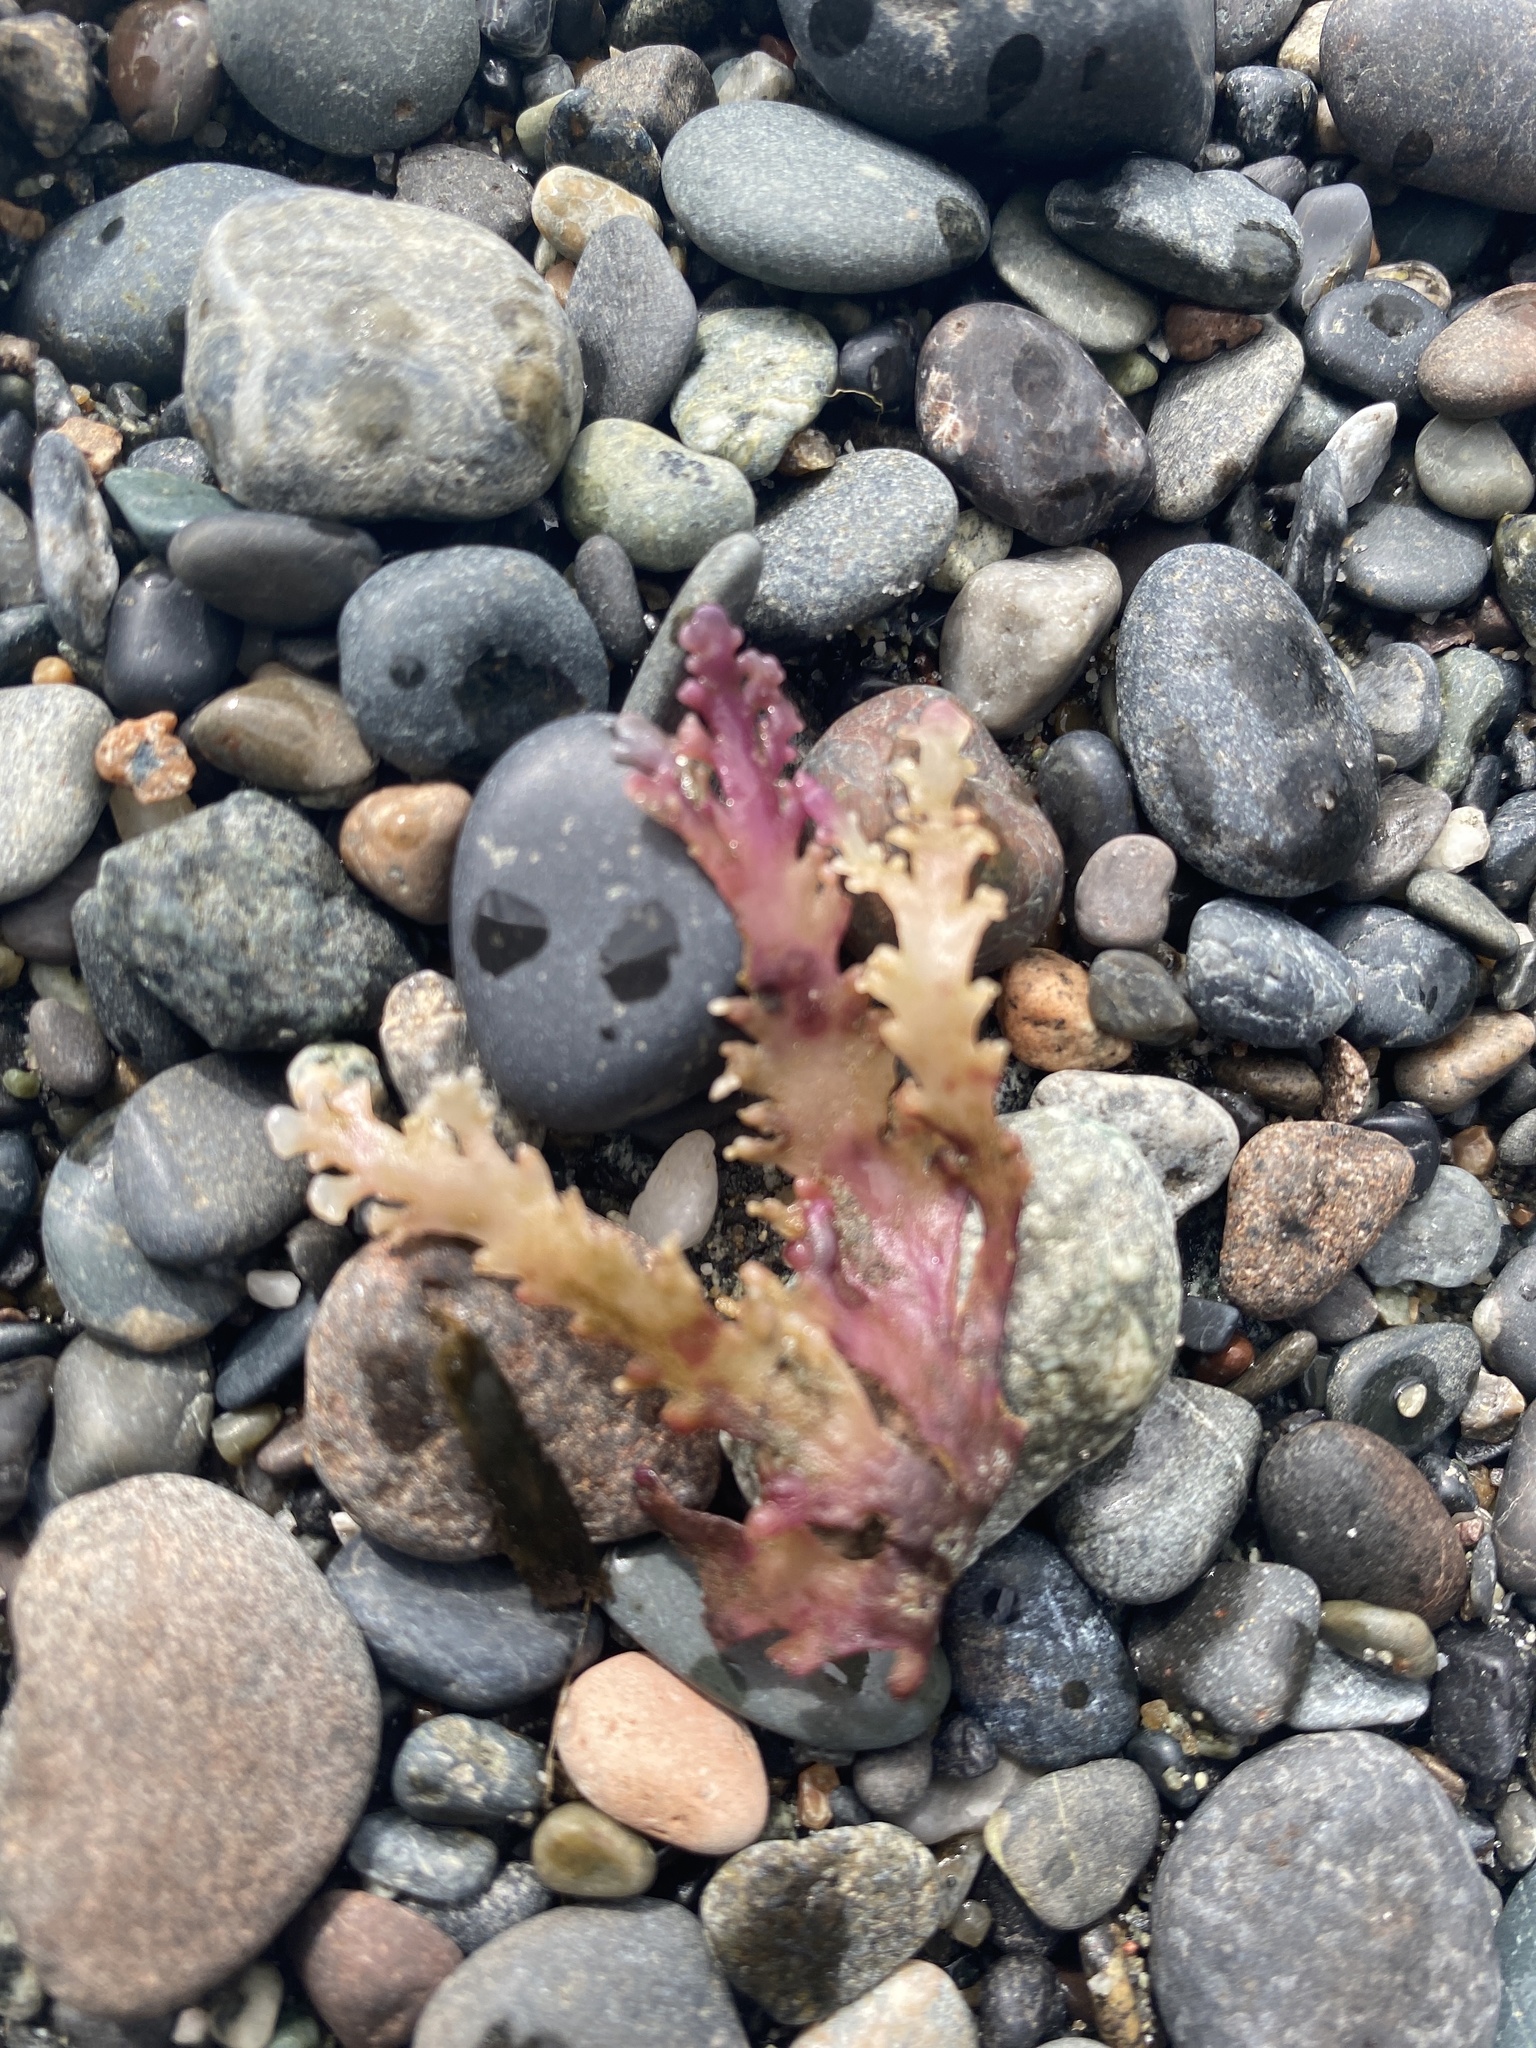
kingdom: Plantae
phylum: Rhodophyta
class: Florideophyceae
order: Ceramiales
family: Rhodomelaceae
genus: Osmundea
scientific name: Osmundea spectabilis
